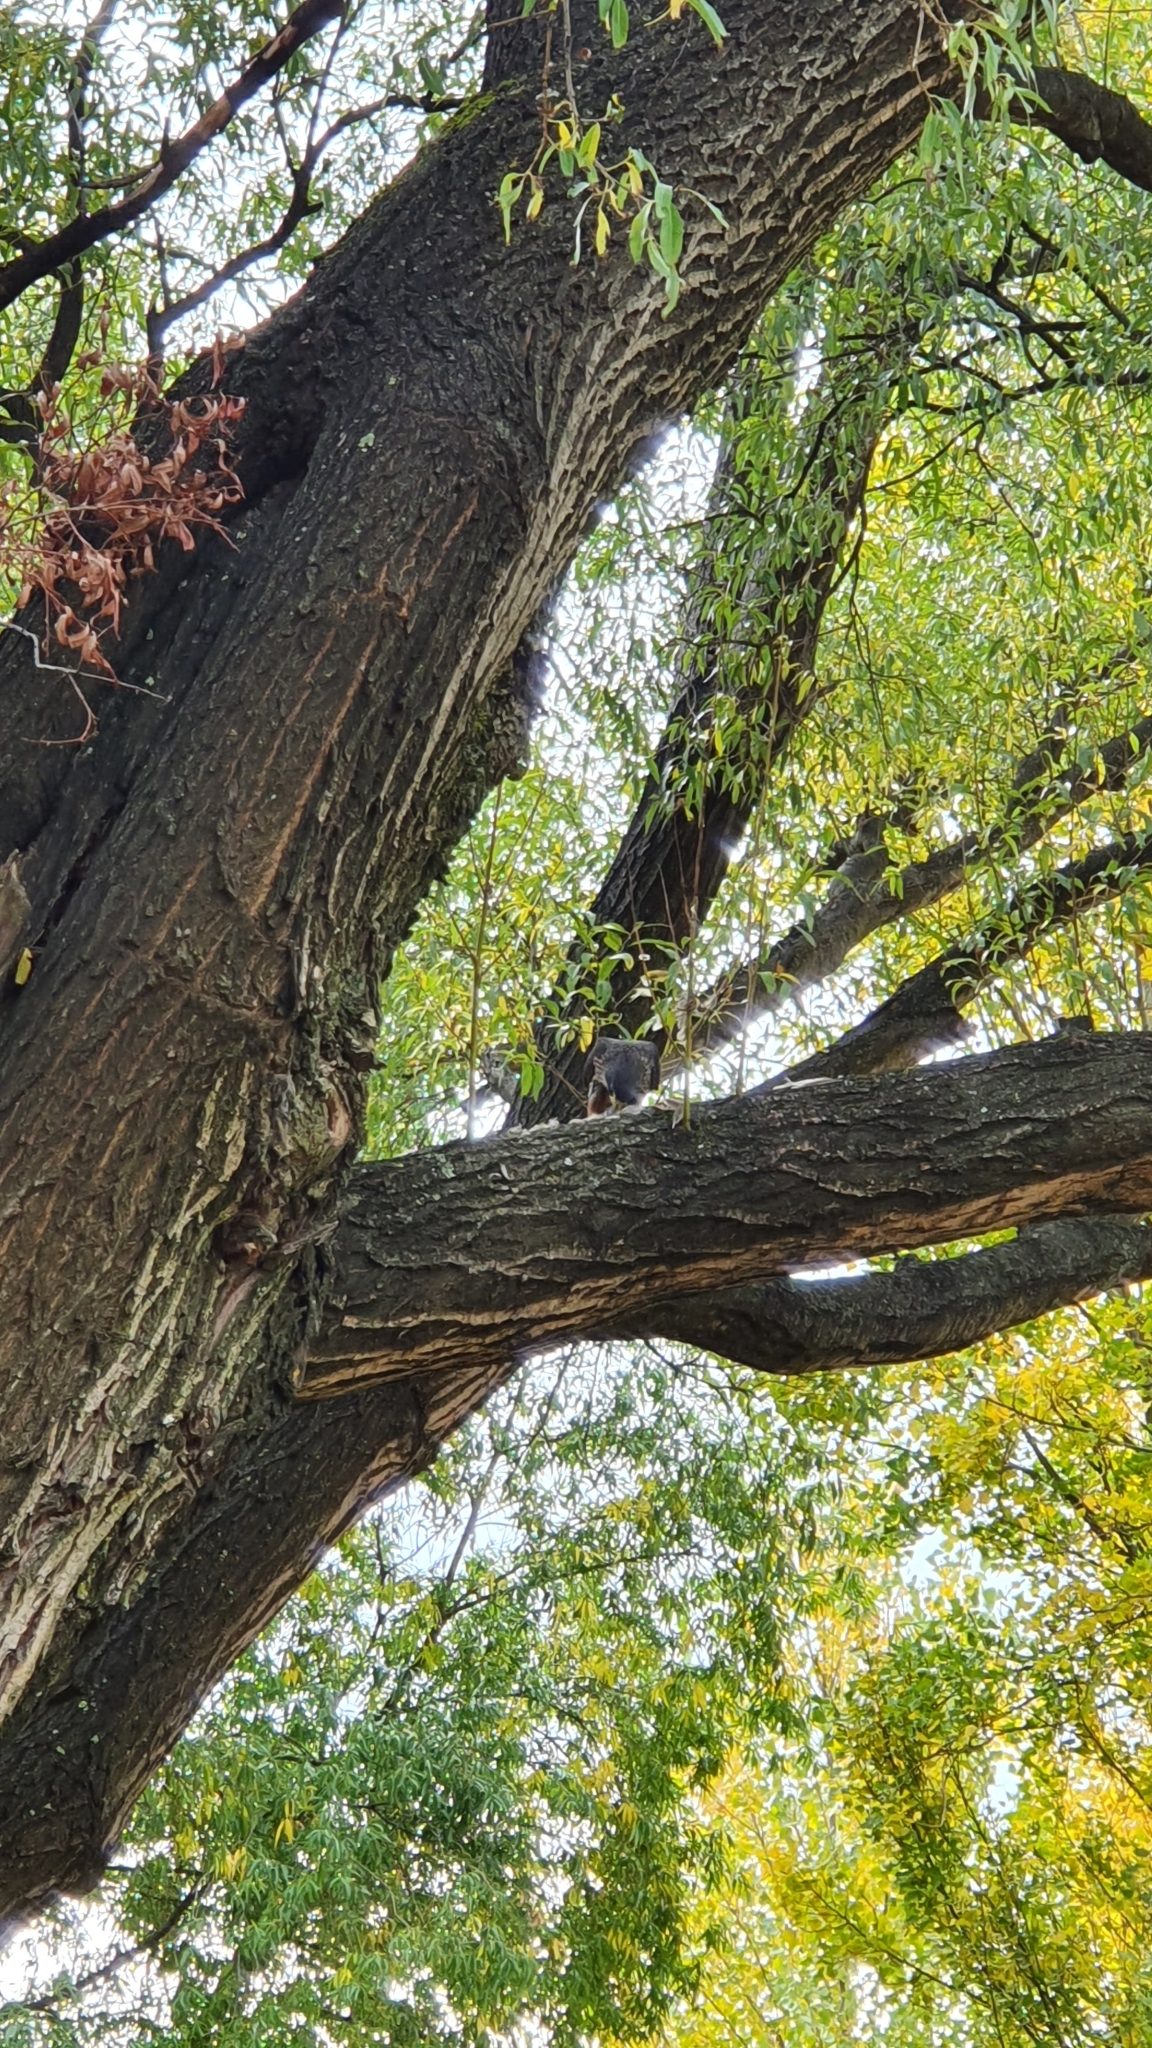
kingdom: Animalia
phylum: Chordata
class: Aves
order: Falconiformes
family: Falconidae
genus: Falco
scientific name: Falco novaeseelandiae
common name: New zealand falcon
